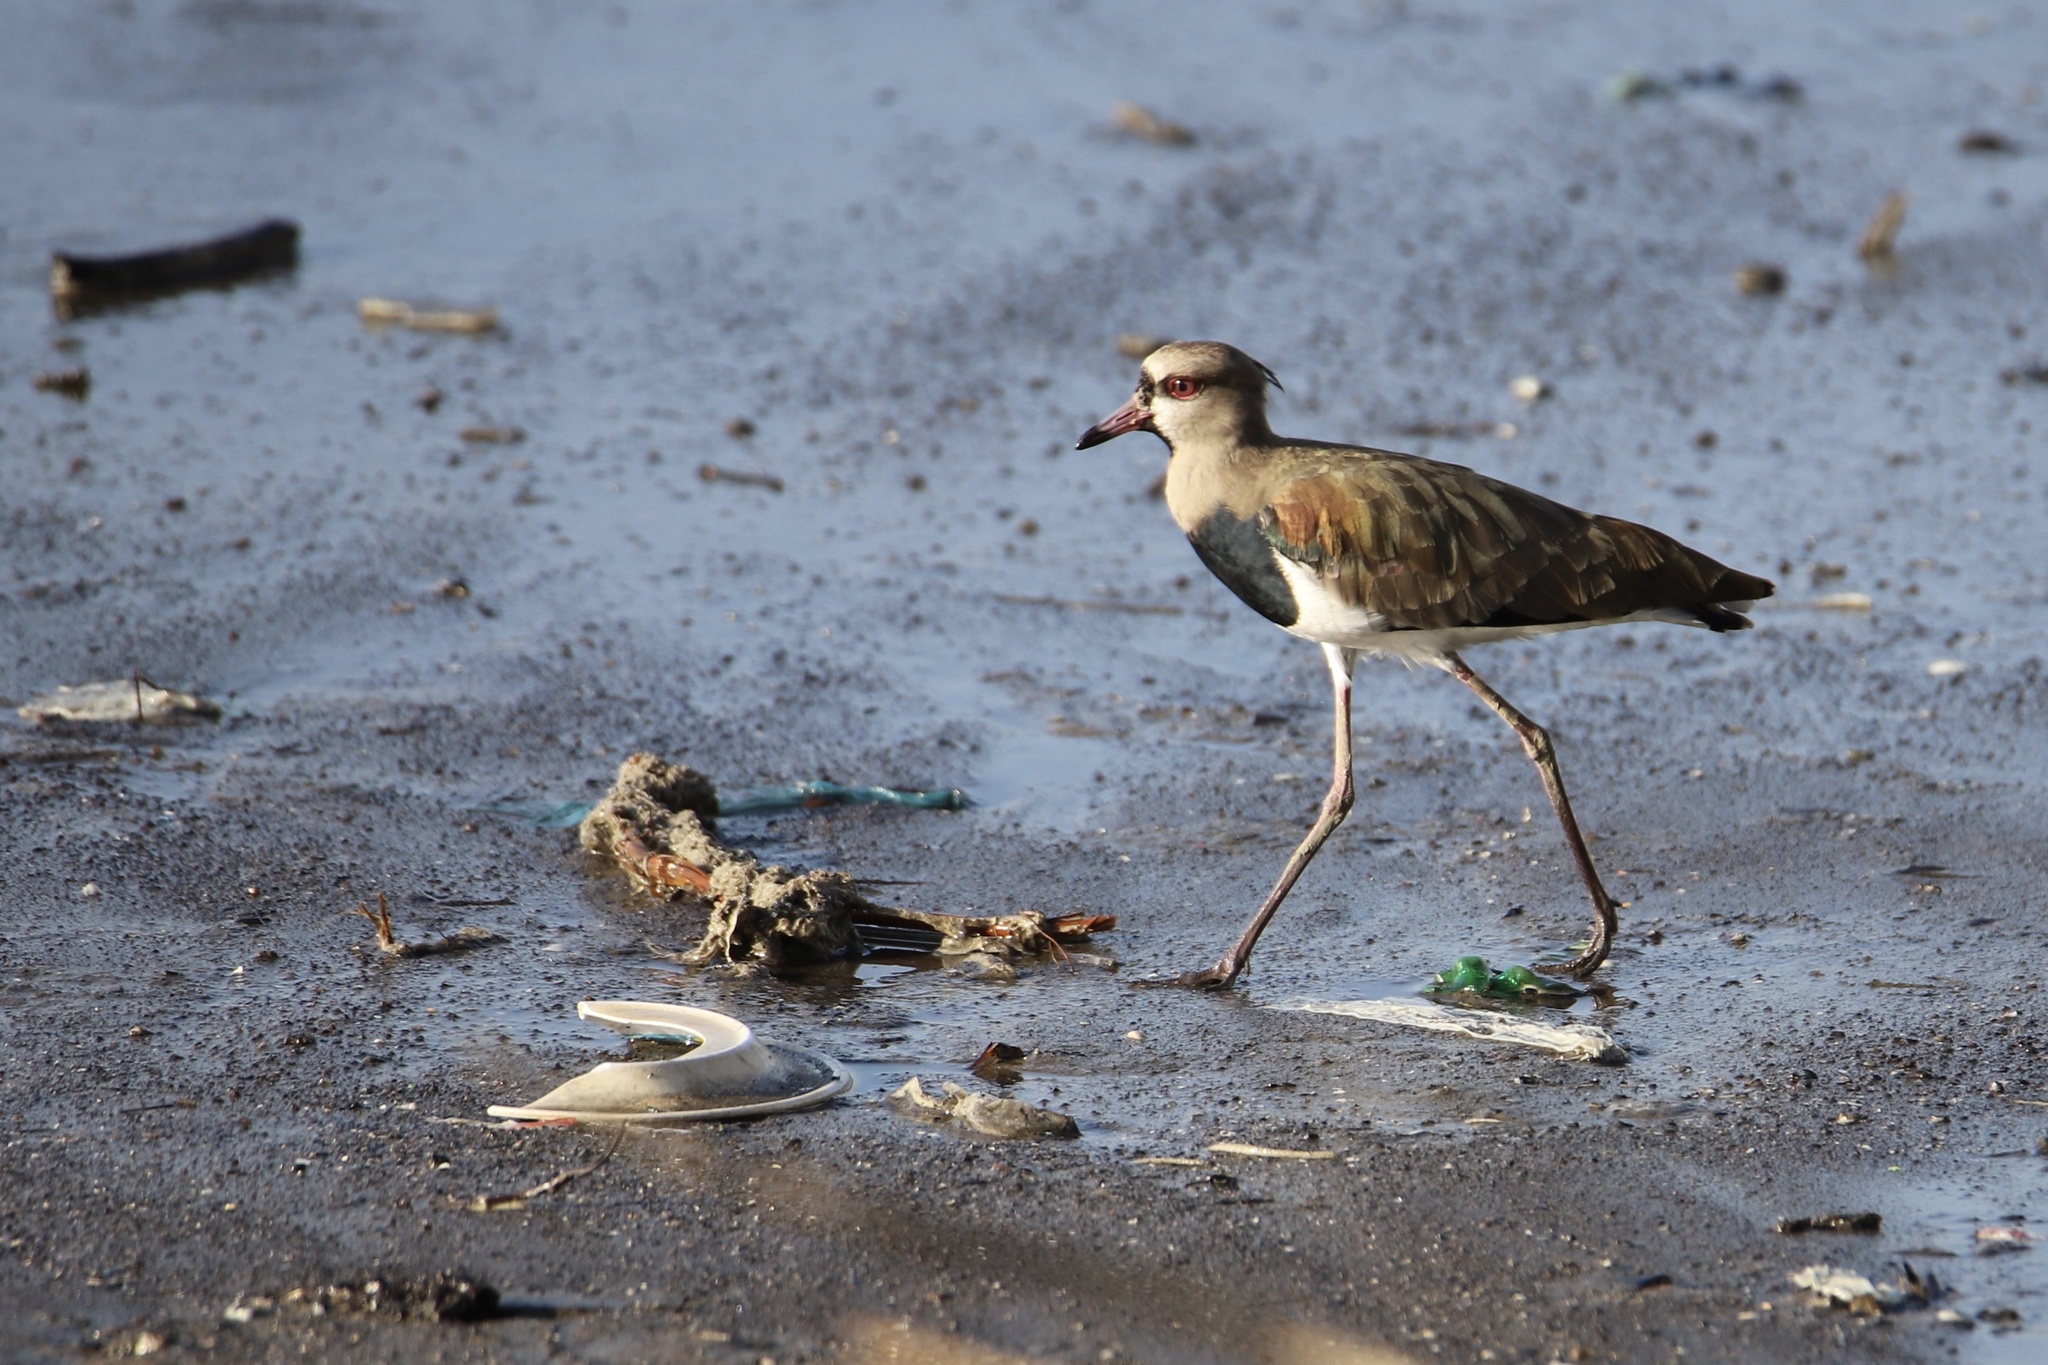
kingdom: Animalia
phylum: Chordata
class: Aves
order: Charadriiformes
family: Charadriidae
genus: Vanellus
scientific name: Vanellus chilensis
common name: Southern lapwing
